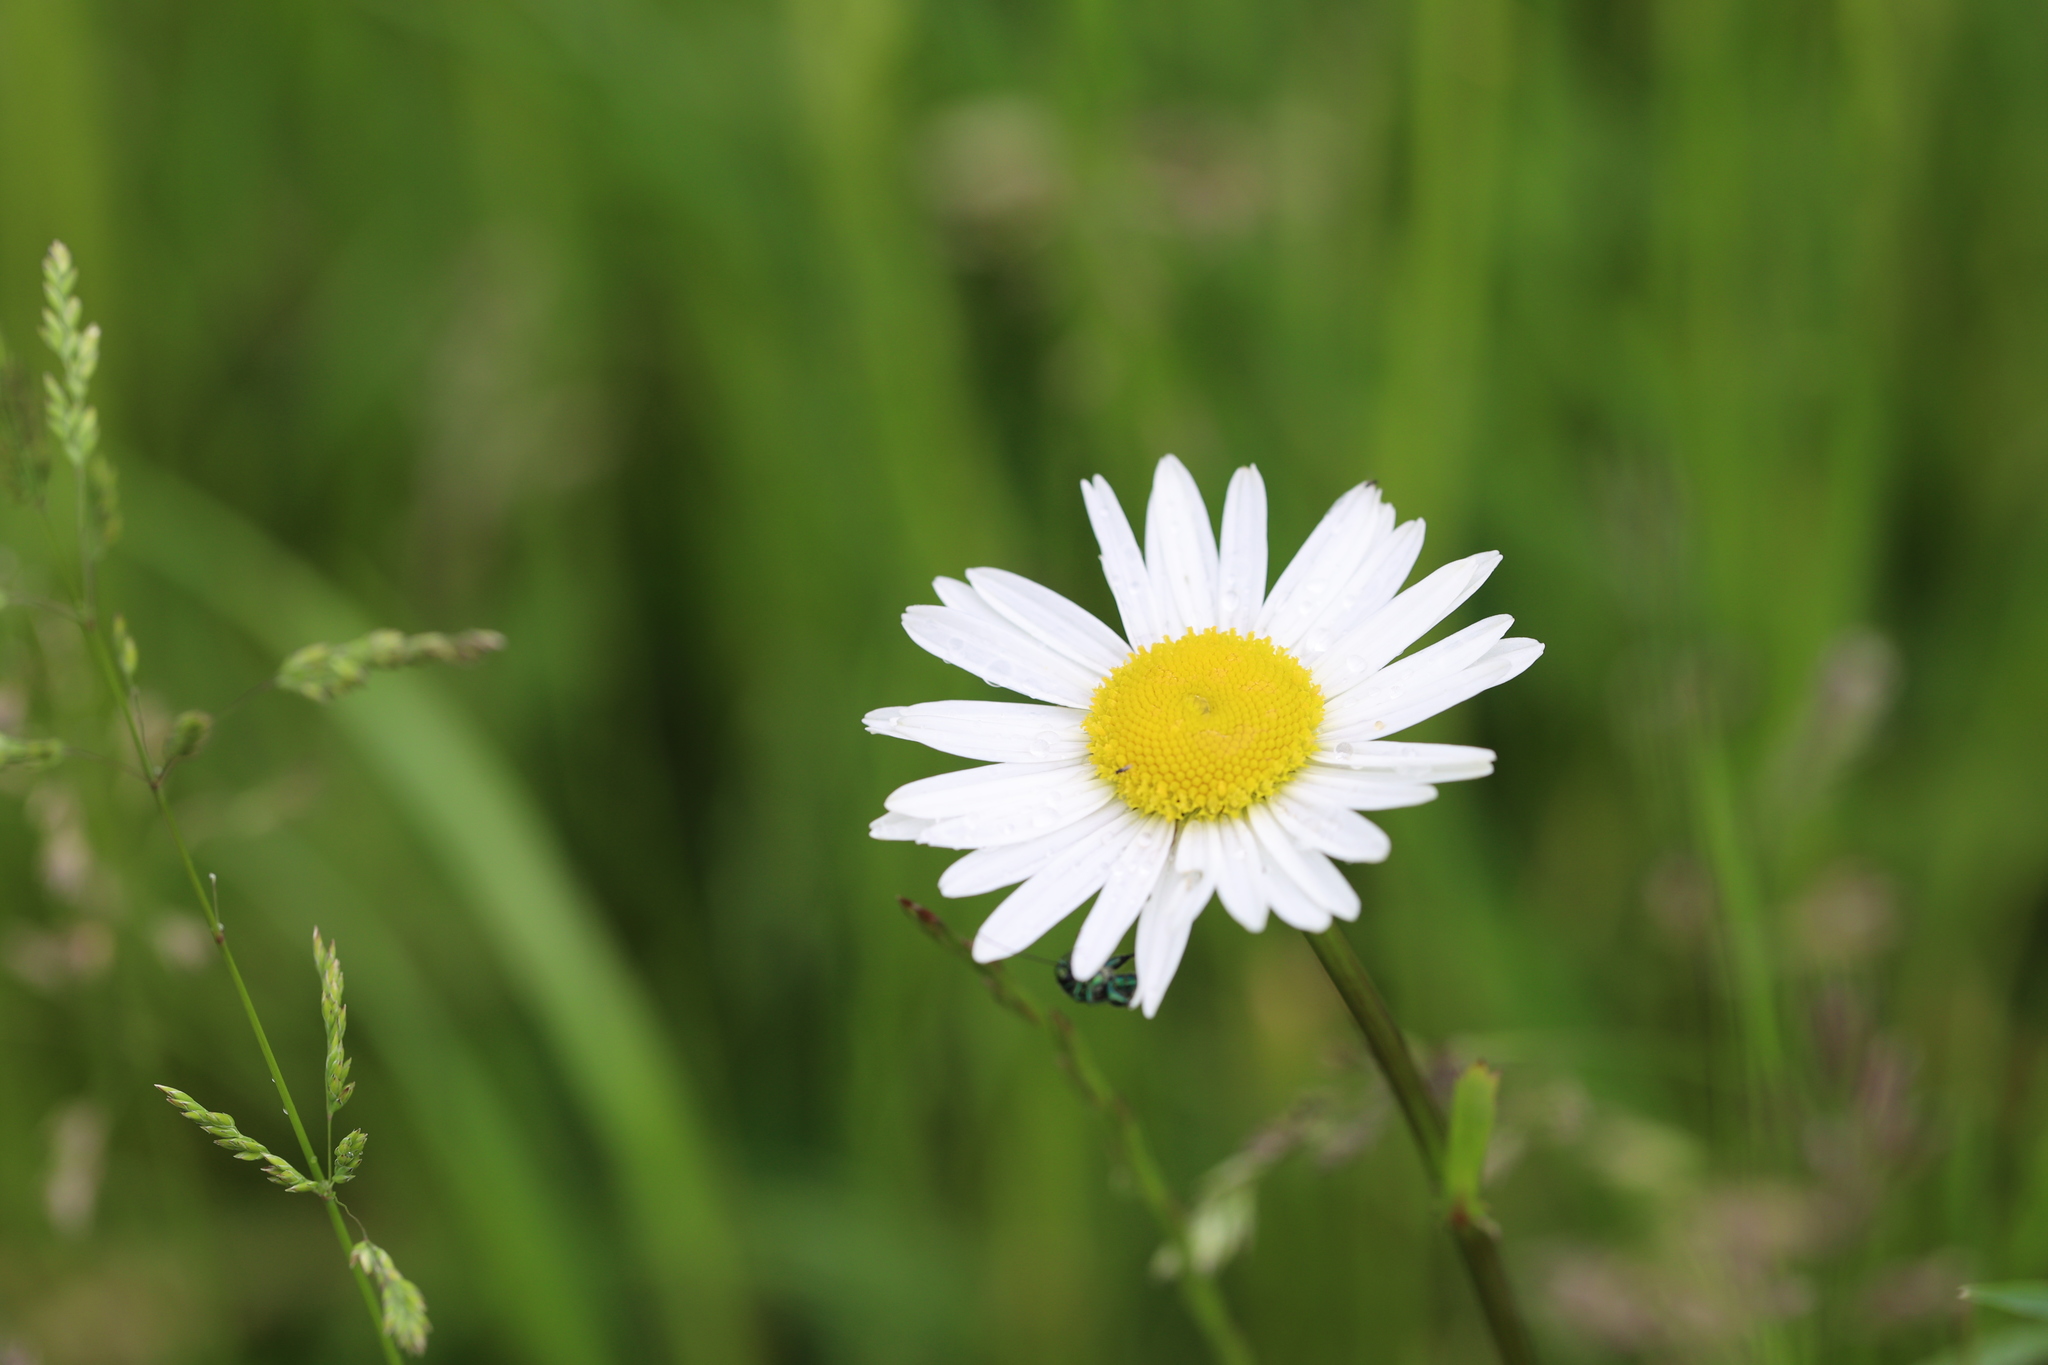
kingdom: Plantae
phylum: Tracheophyta
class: Magnoliopsida
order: Asterales
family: Asteraceae
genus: Leucanthemum
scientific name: Leucanthemum vulgare
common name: Oxeye daisy
